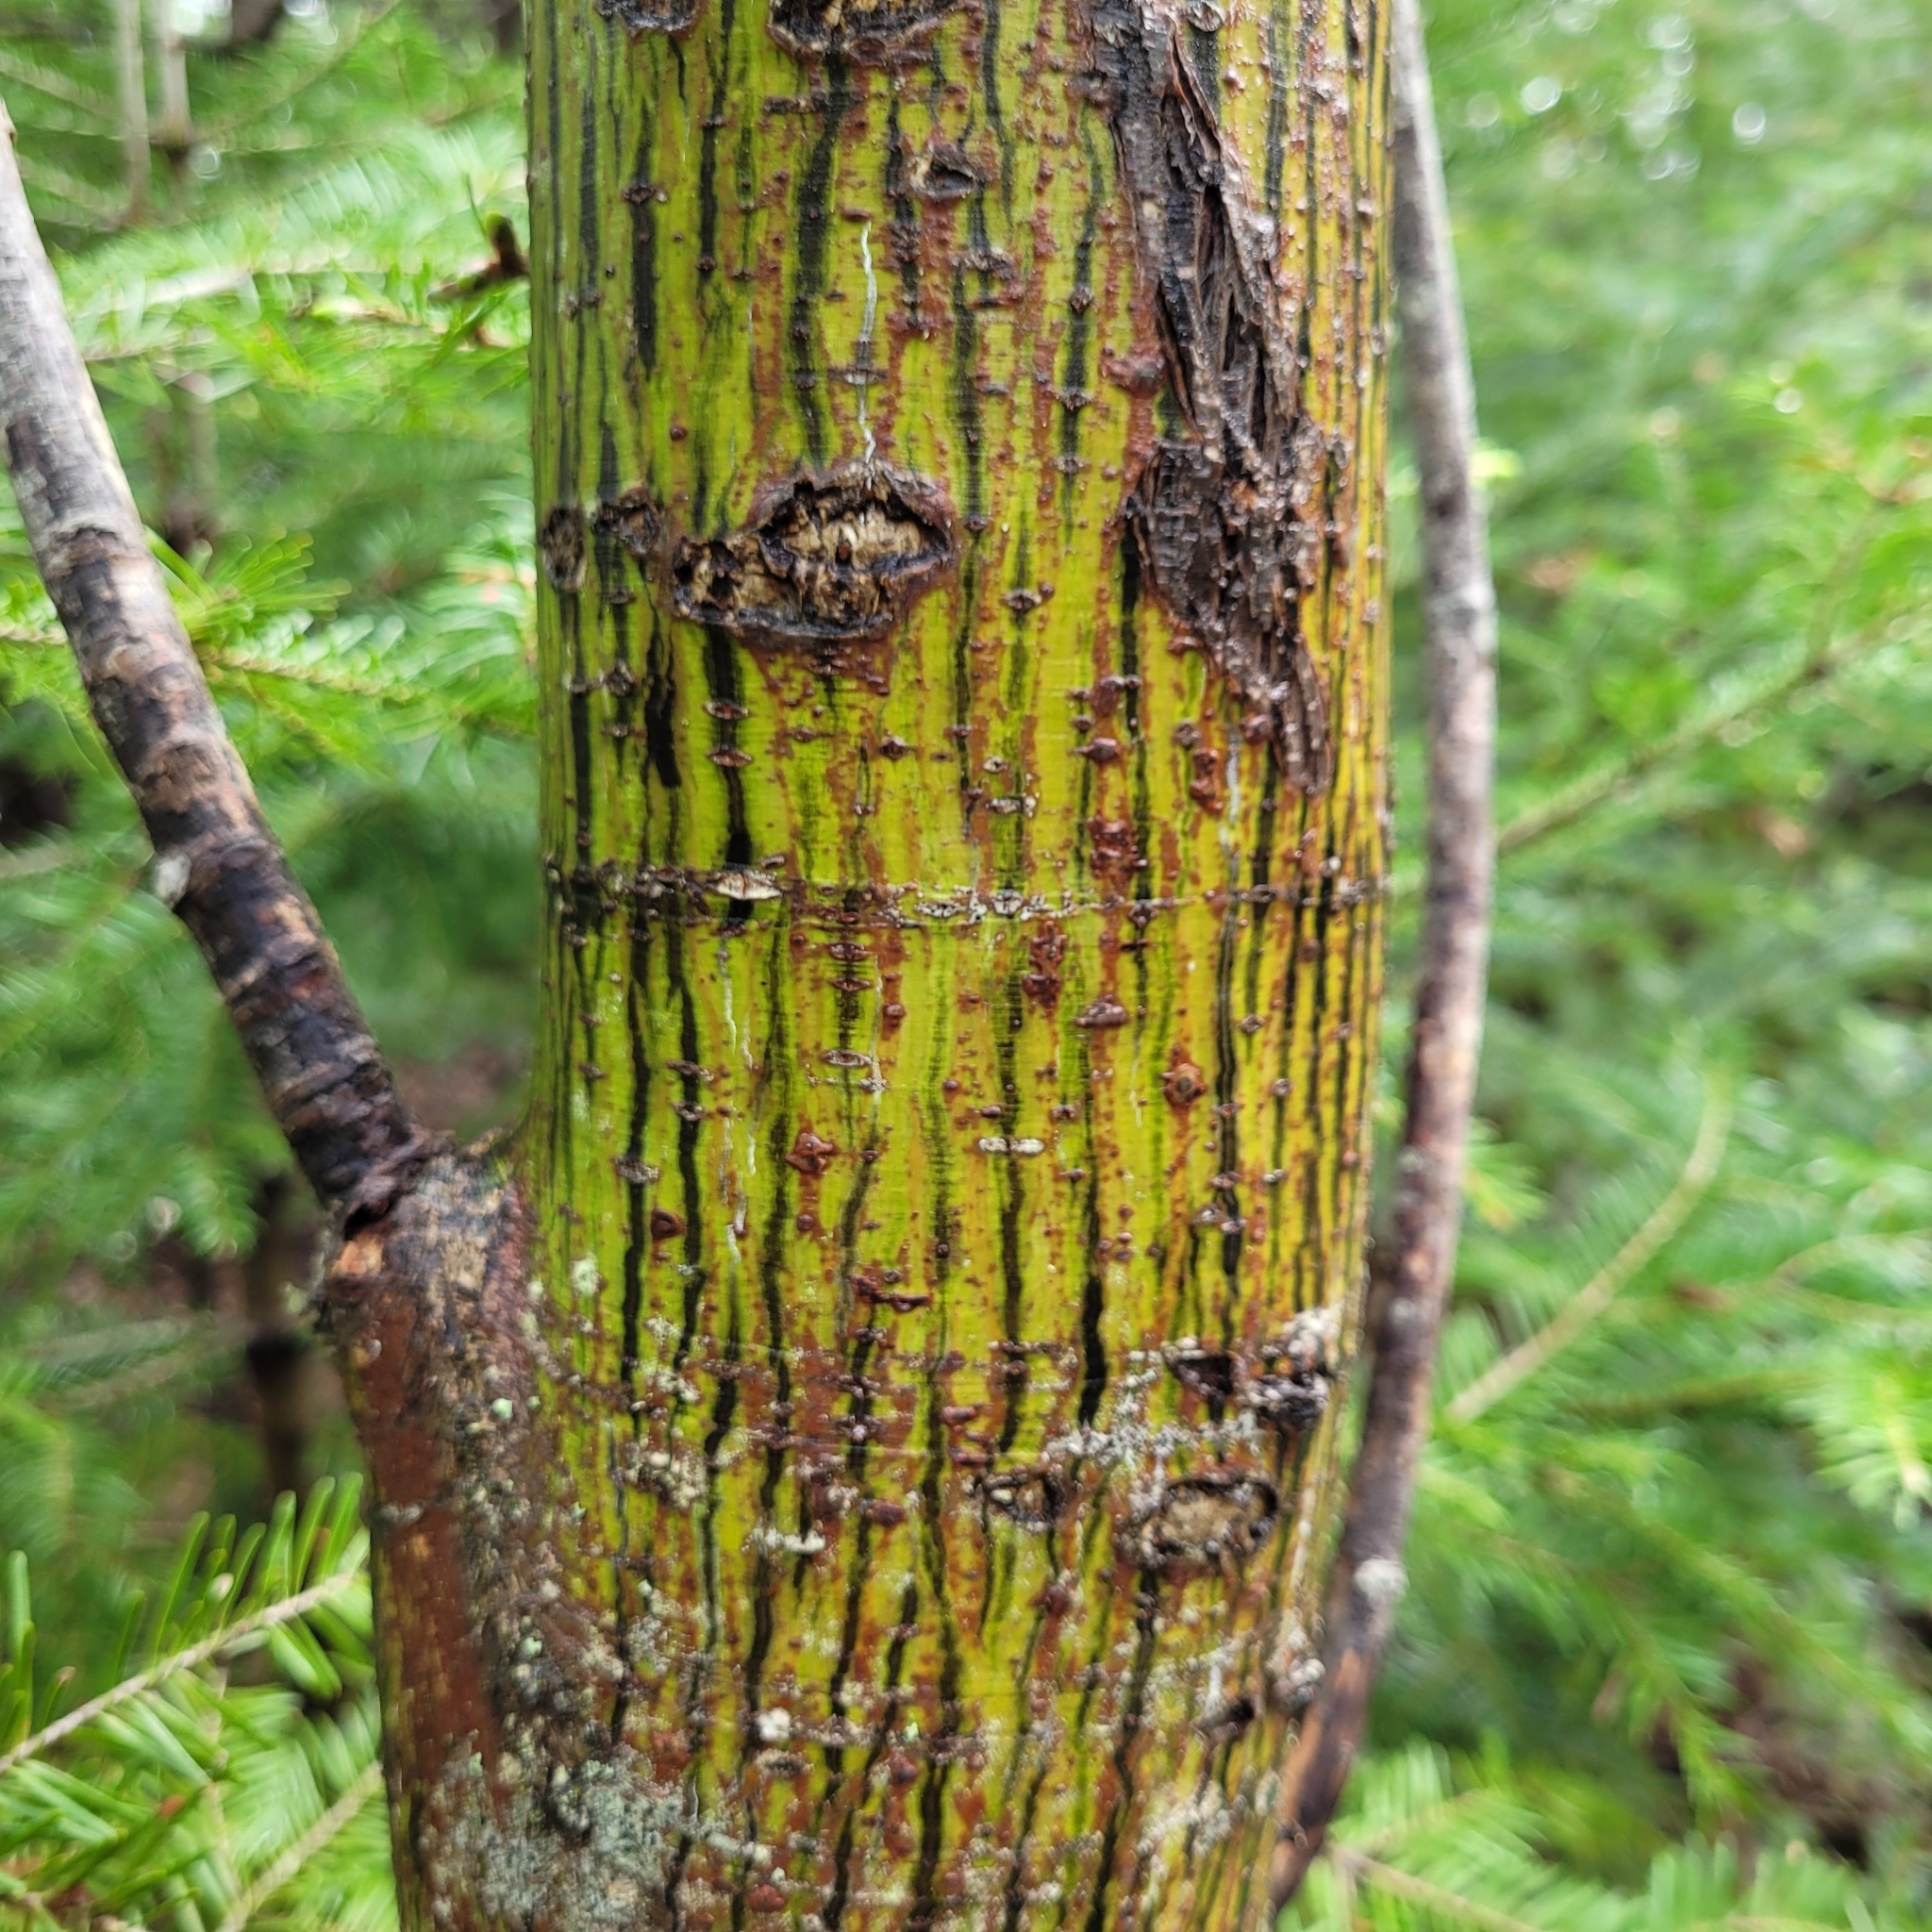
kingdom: Plantae
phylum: Tracheophyta
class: Magnoliopsida
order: Sapindales
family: Sapindaceae
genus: Acer
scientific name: Acer pensylvanicum
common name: Moosewood
